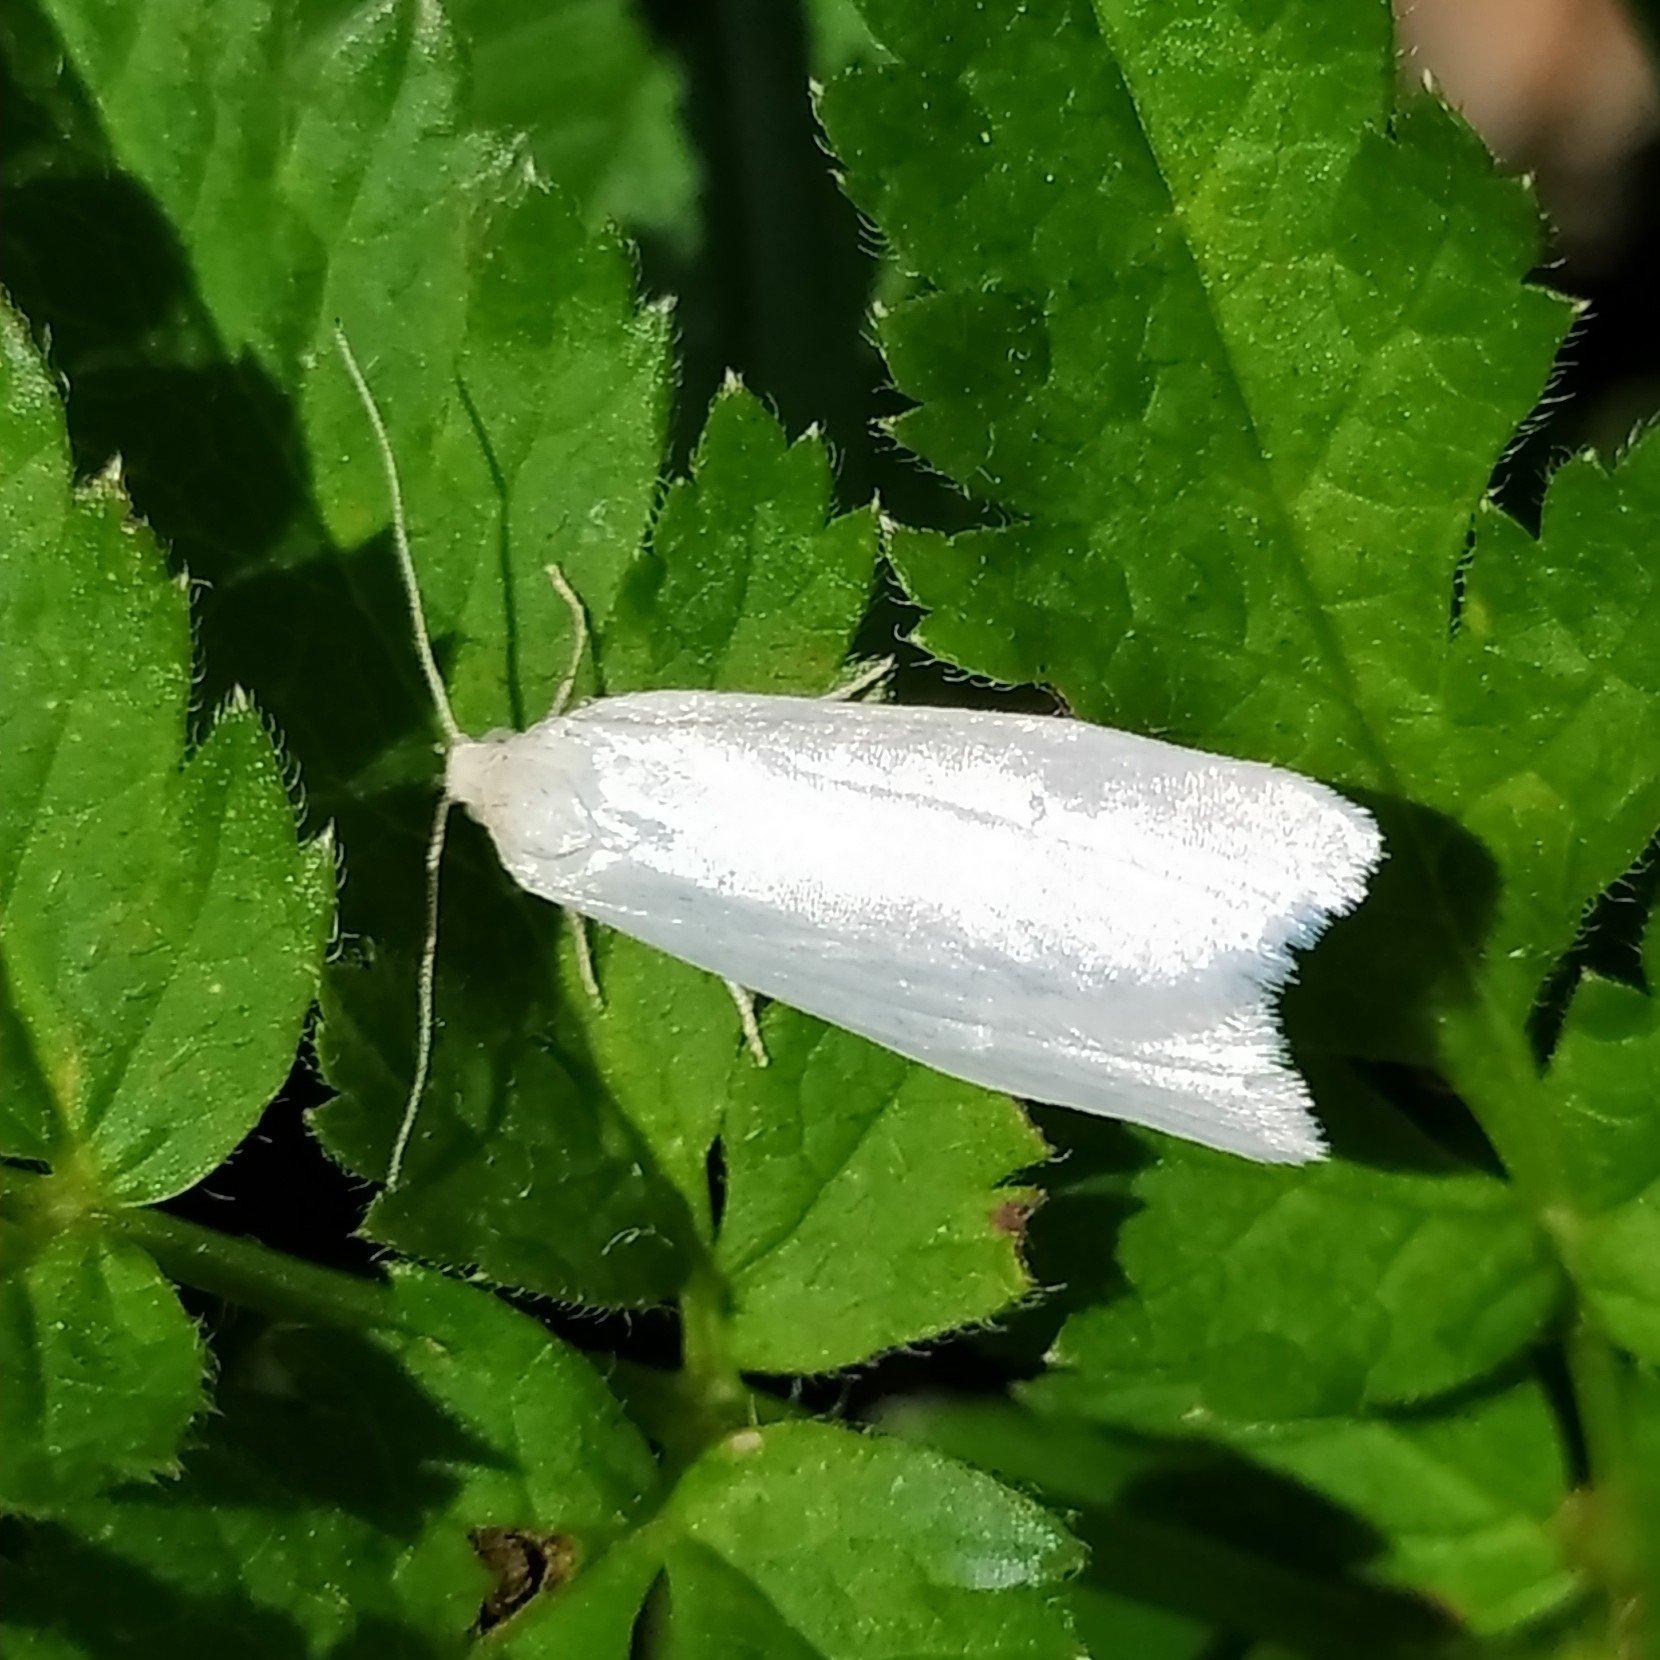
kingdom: Animalia
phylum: Arthropoda
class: Insecta
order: Lepidoptera
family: Tortricidae
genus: Eana
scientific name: Eana argentana
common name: Silver shade
